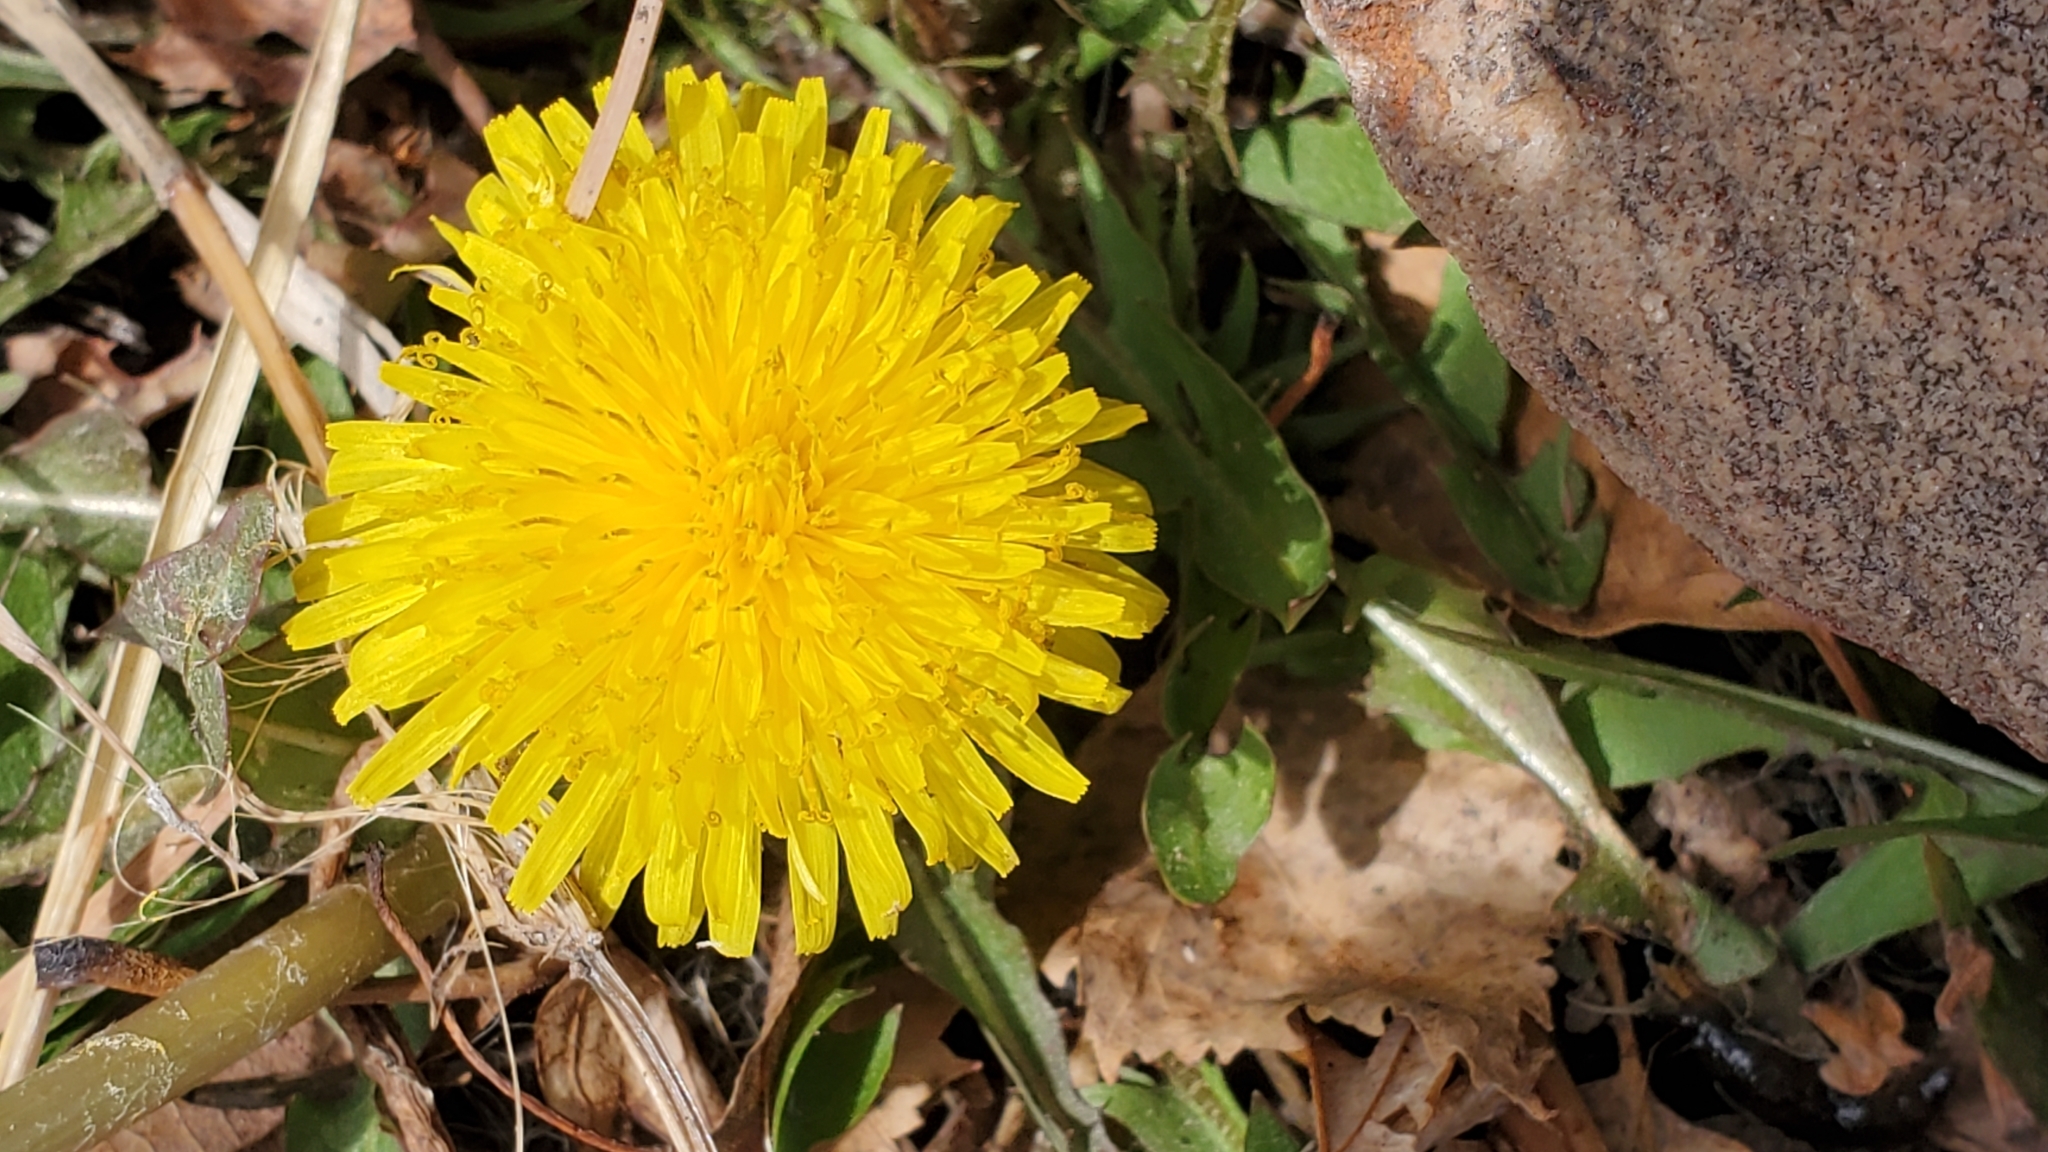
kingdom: Plantae
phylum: Tracheophyta
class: Magnoliopsida
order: Asterales
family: Asteraceae
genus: Taraxacum
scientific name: Taraxacum officinale
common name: Common dandelion
